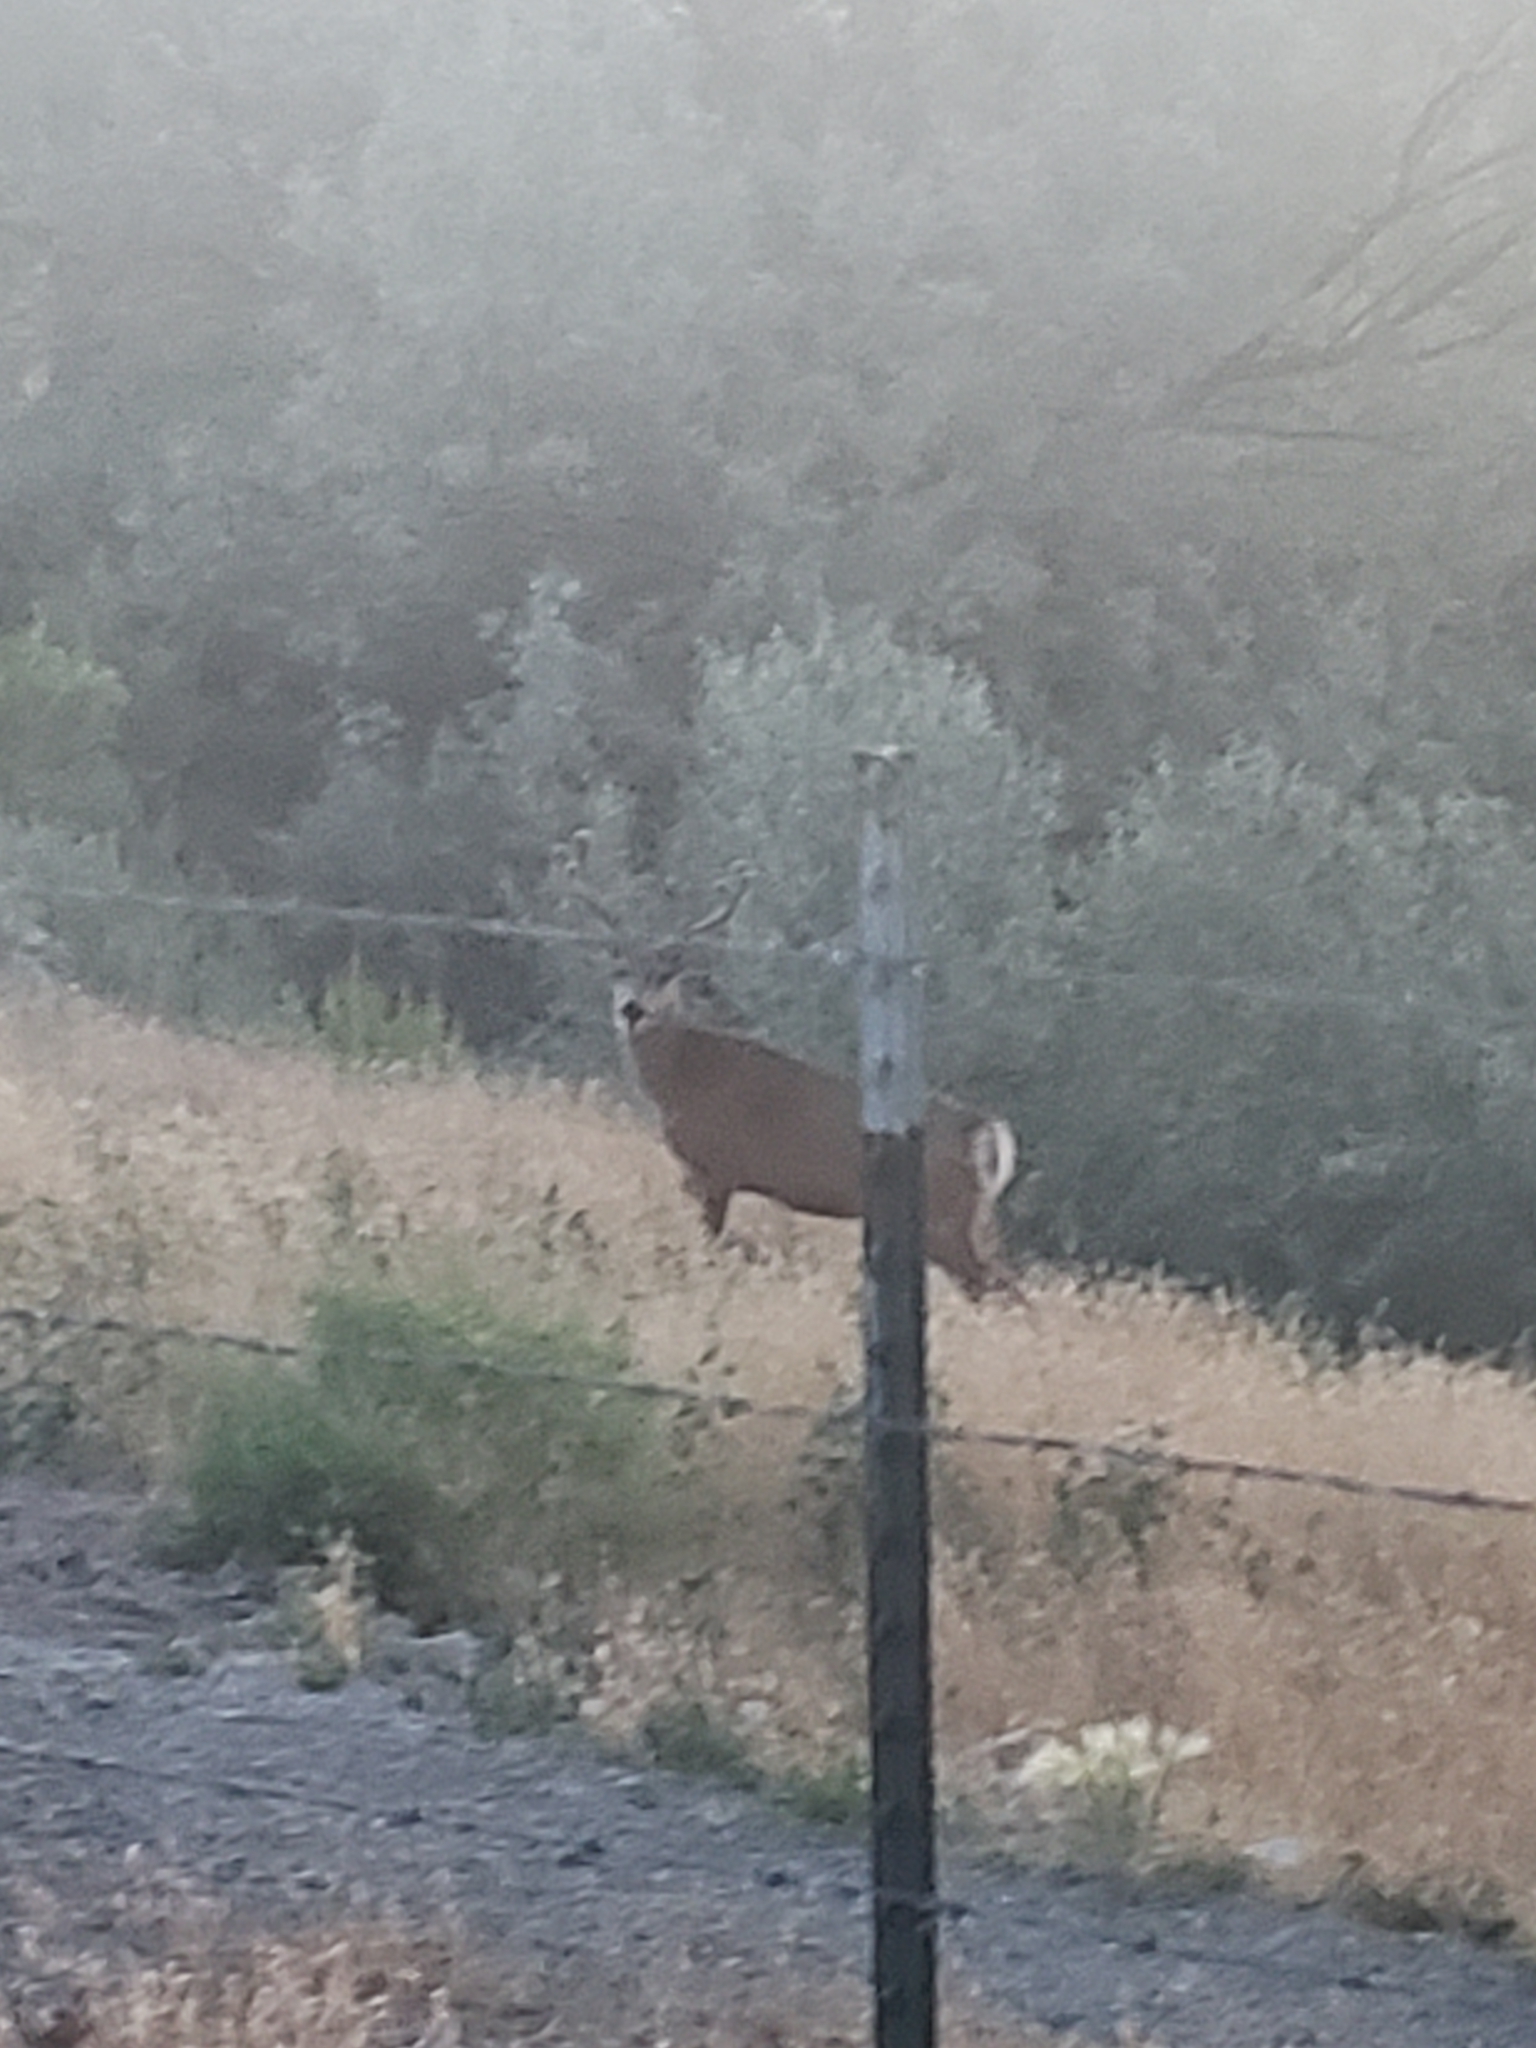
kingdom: Animalia
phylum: Chordata
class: Mammalia
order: Artiodactyla
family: Cervidae
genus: Odocoileus
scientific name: Odocoileus hemionus
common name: Mule deer
